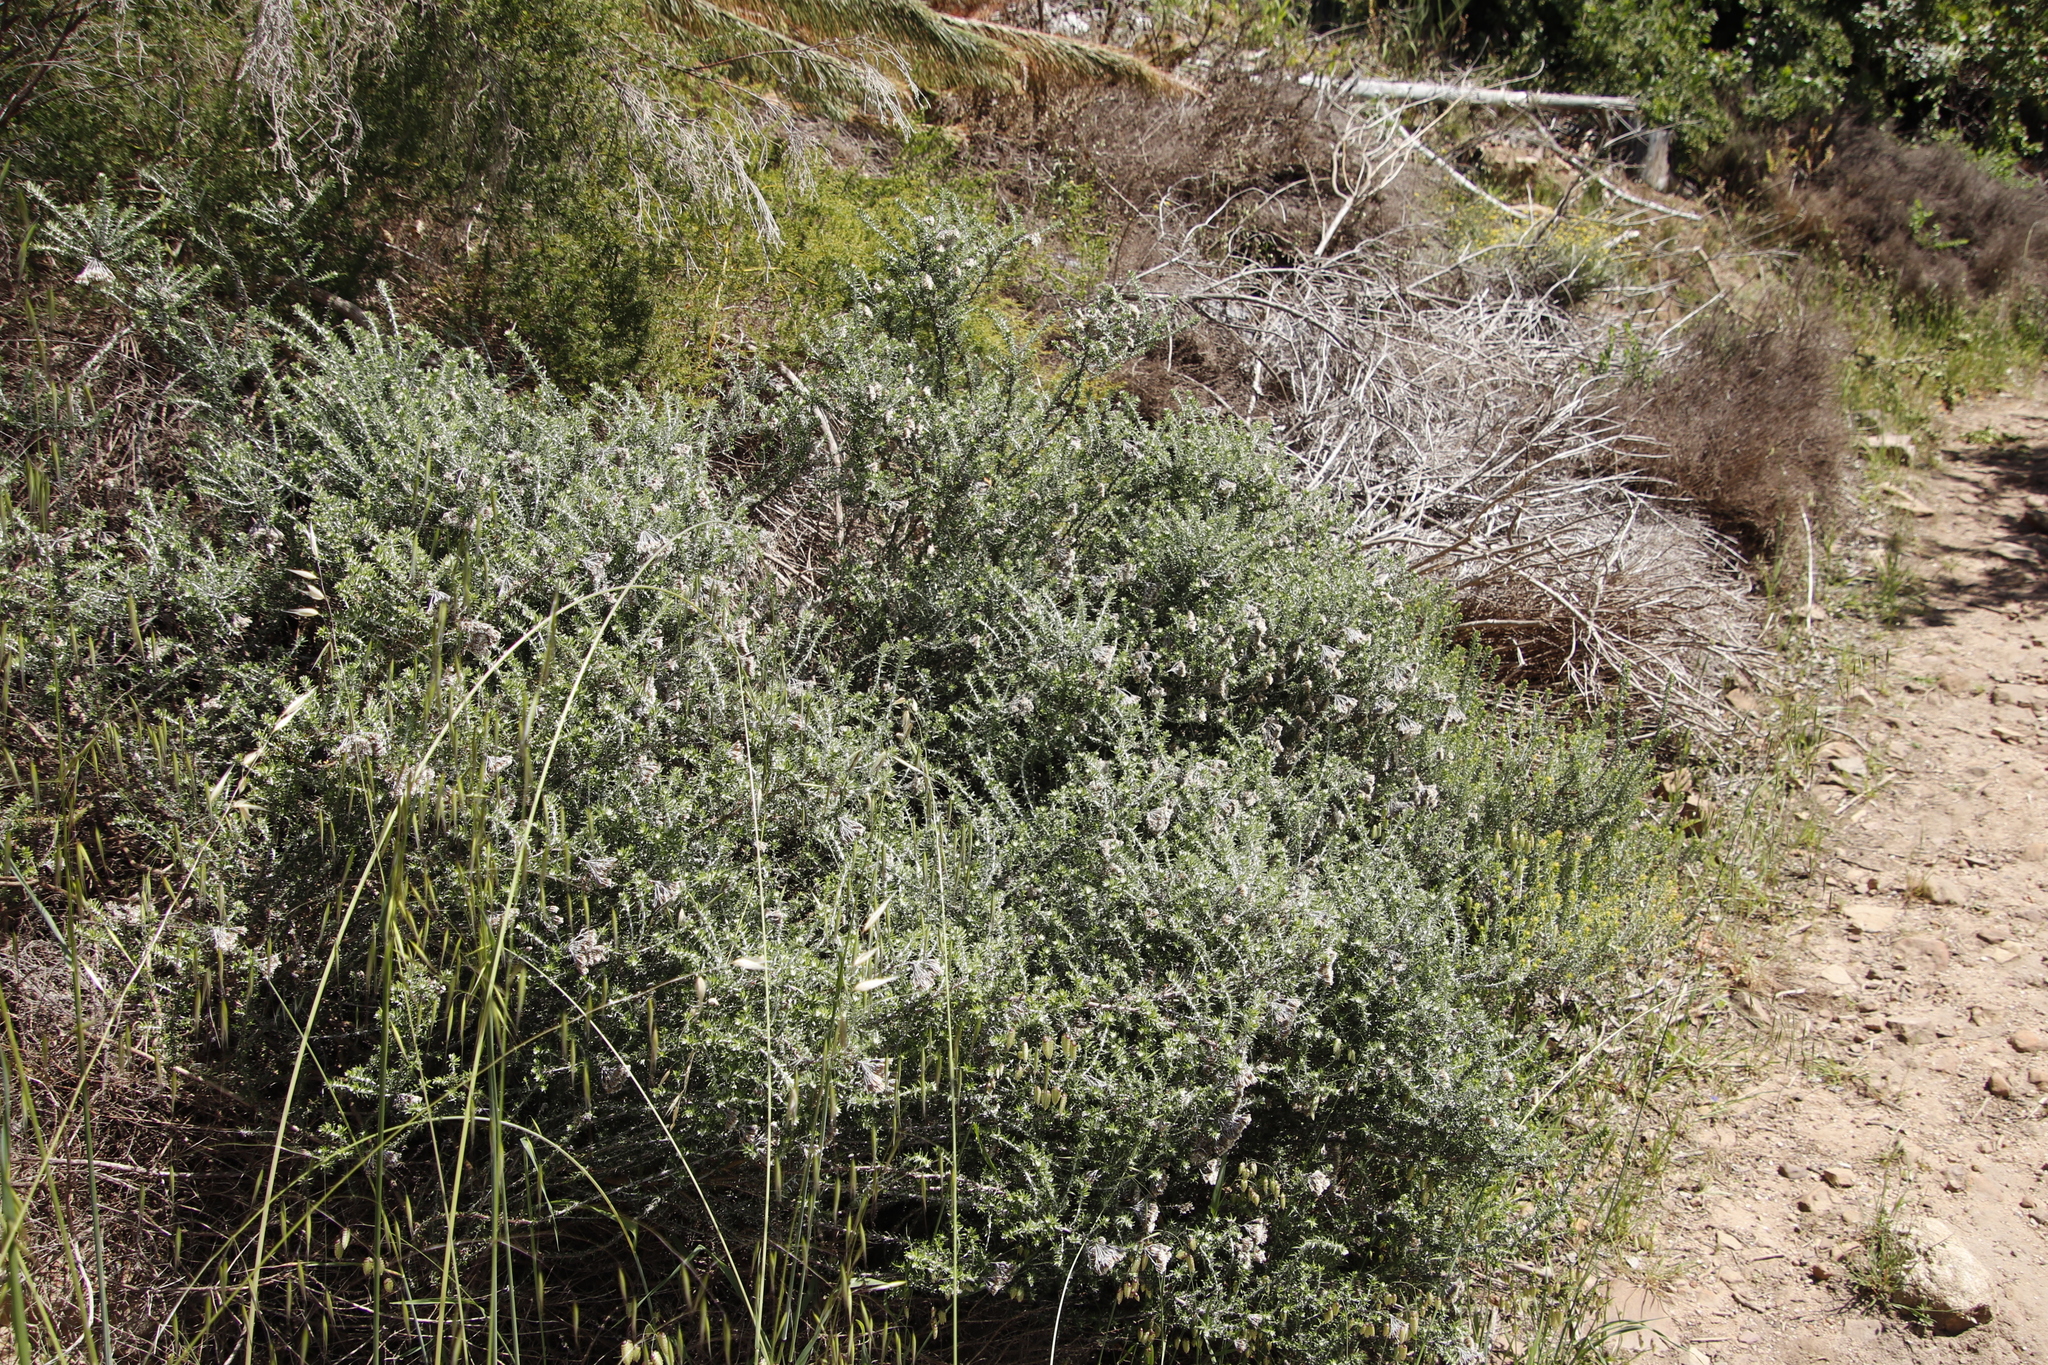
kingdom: Plantae
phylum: Tracheophyta
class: Magnoliopsida
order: Asterales
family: Asteraceae
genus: Metalasia
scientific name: Metalasia densa
